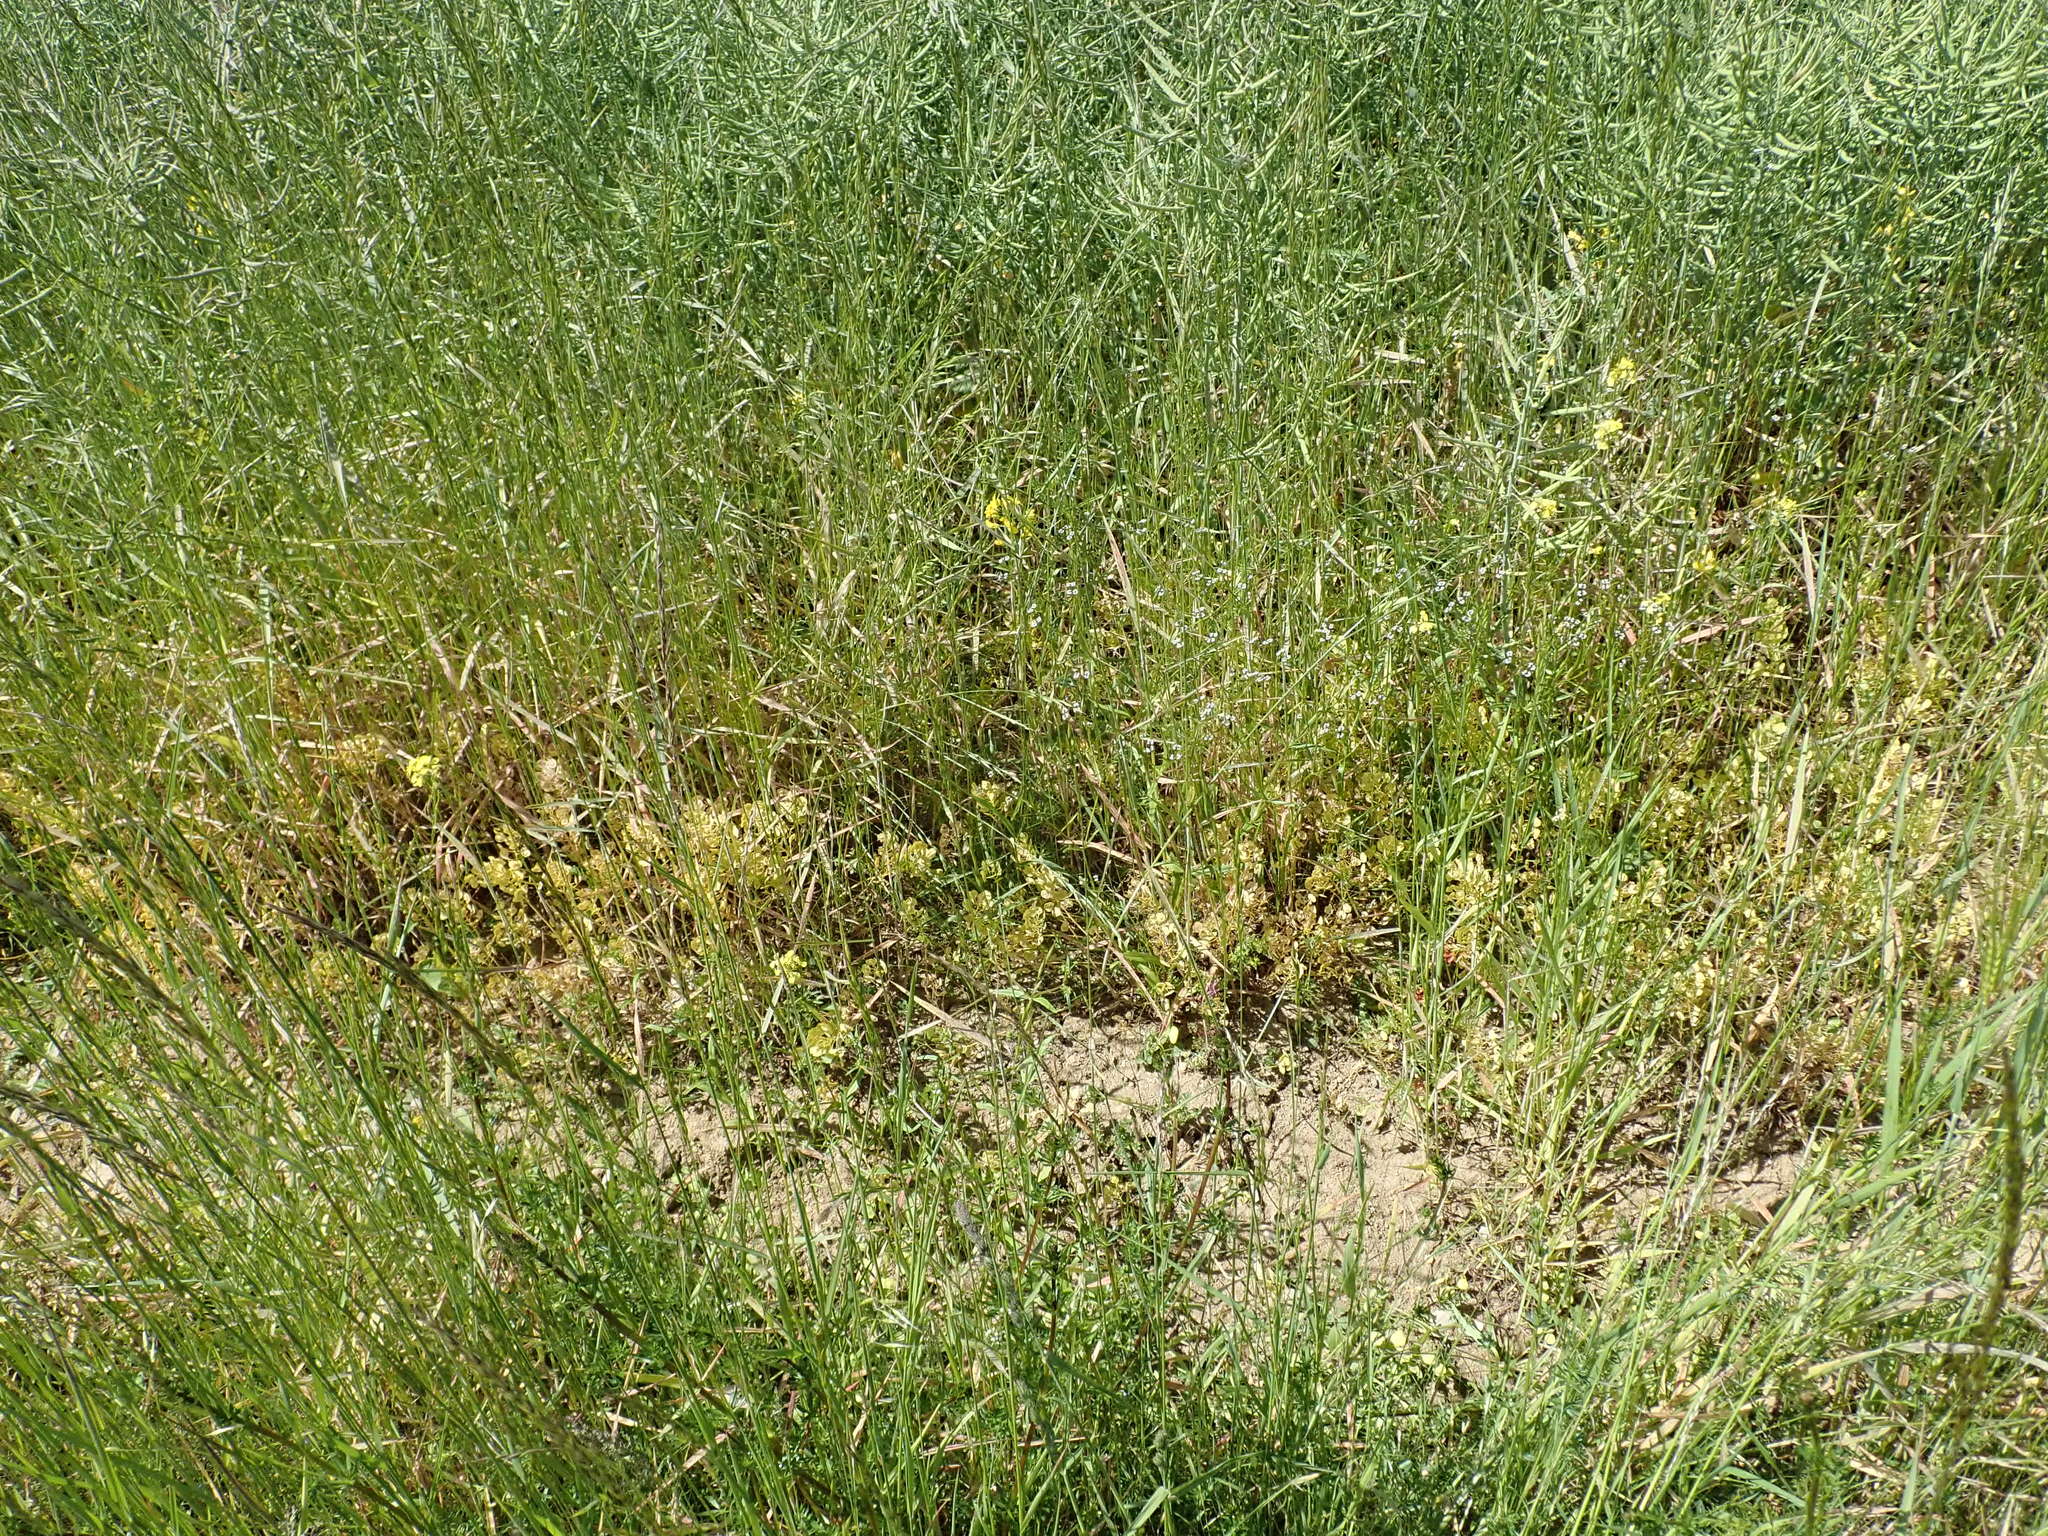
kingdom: Plantae
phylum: Tracheophyta
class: Magnoliopsida
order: Brassicales
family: Brassicaceae
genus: Thlaspi
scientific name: Thlaspi arvense
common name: Field pennycress
